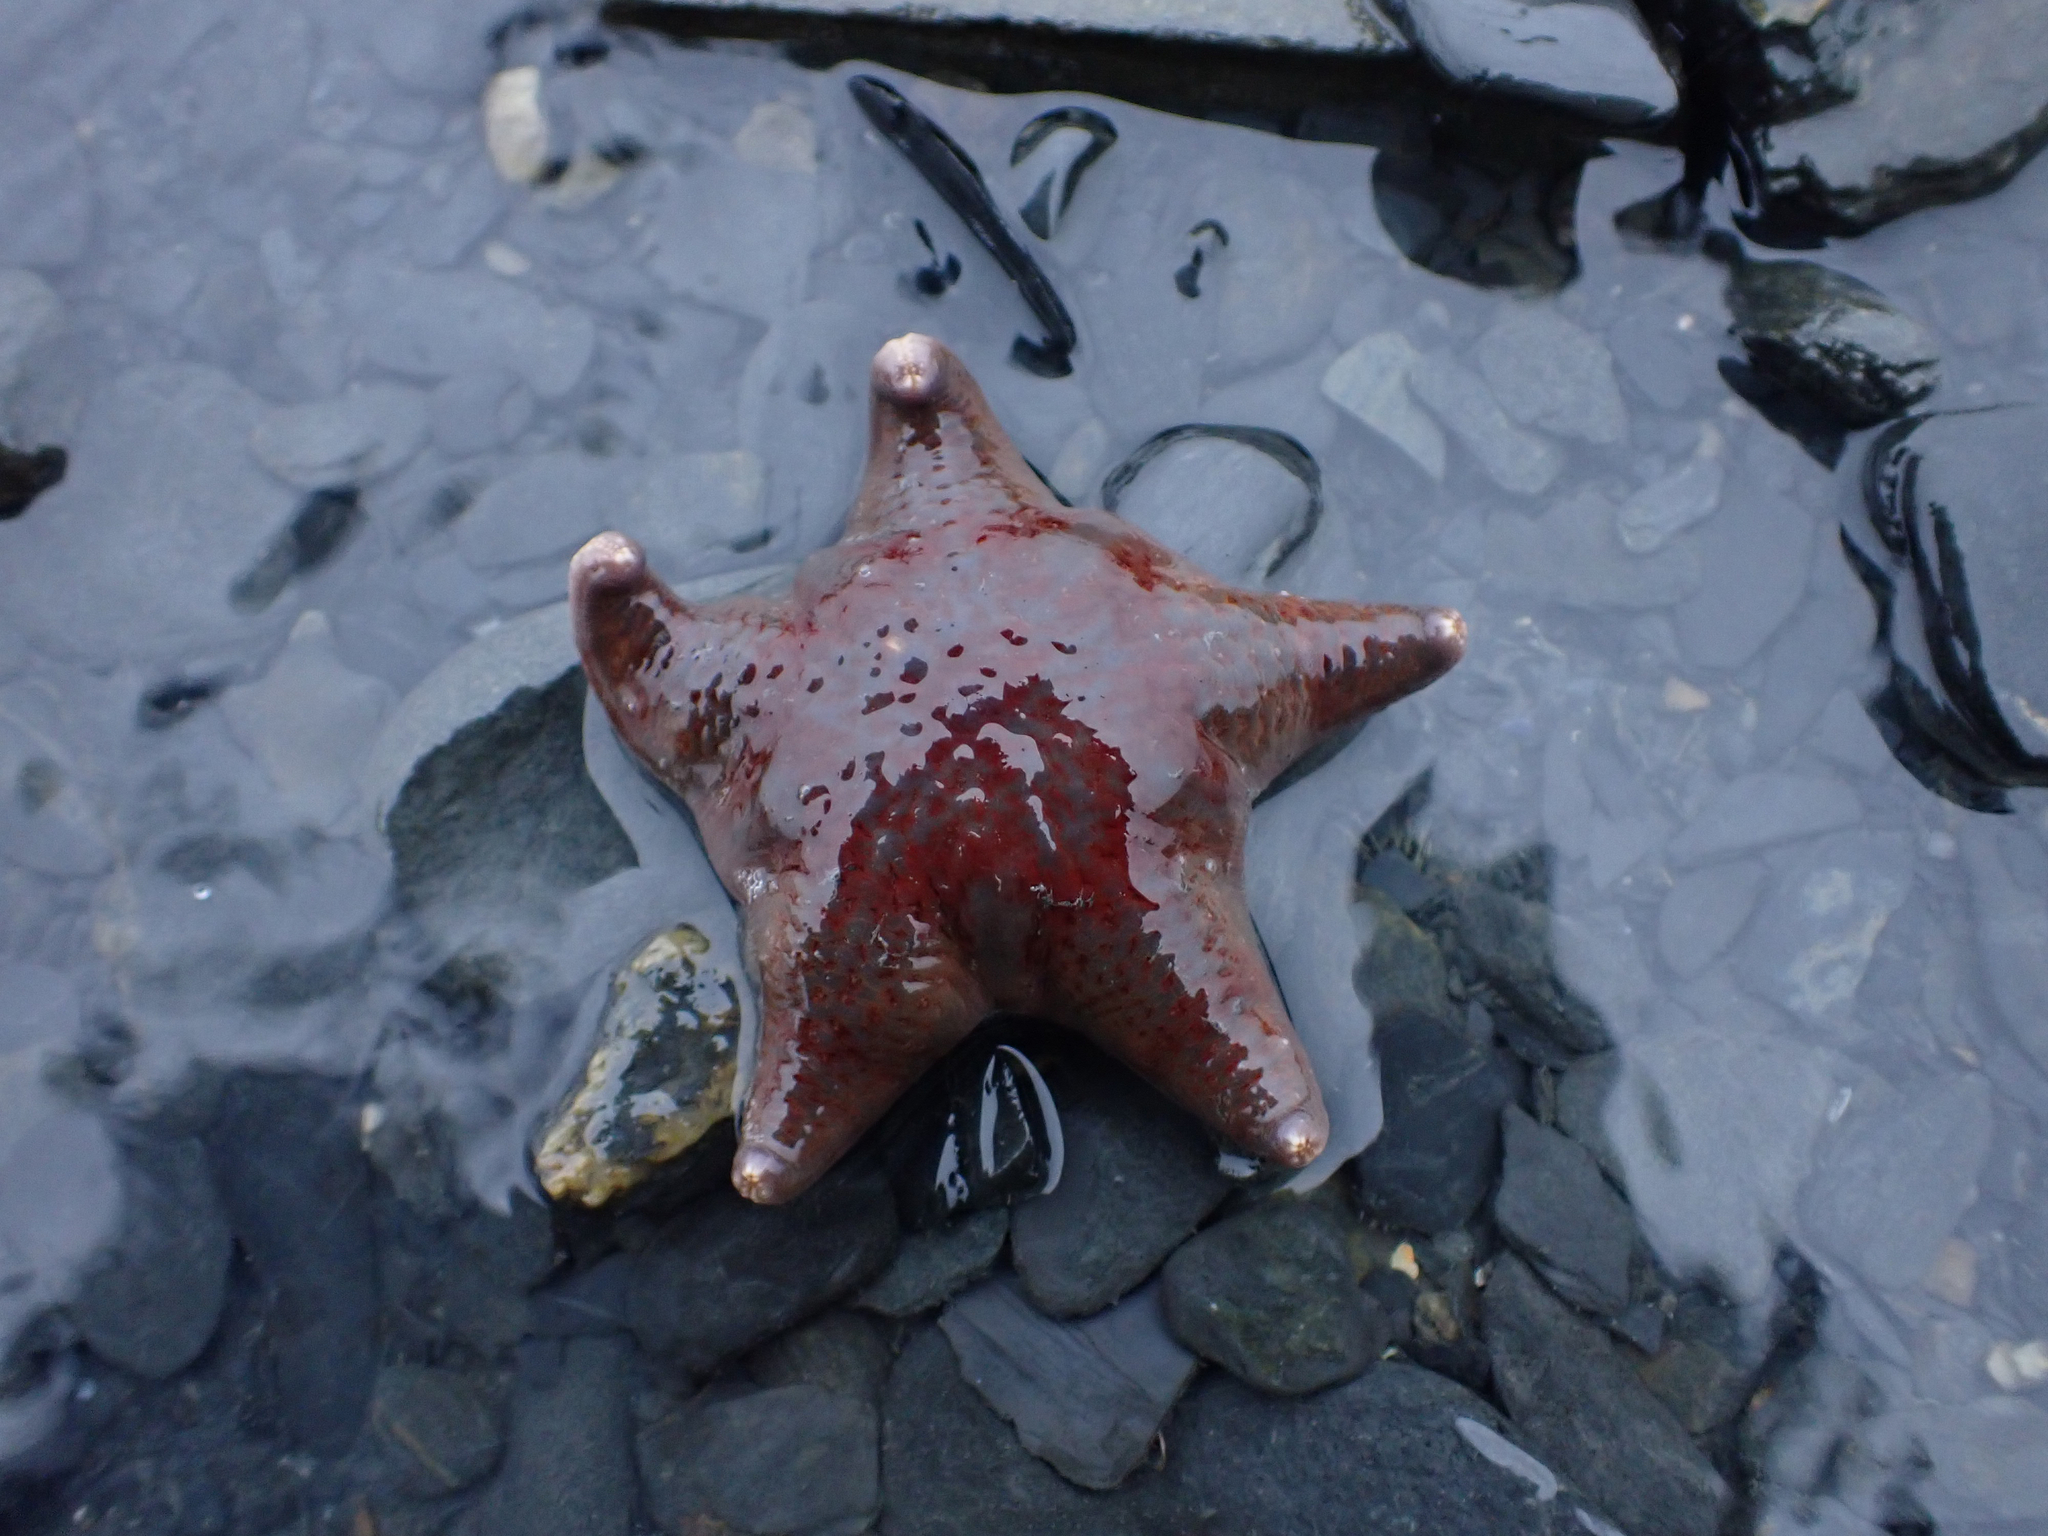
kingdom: Animalia
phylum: Echinodermata
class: Asteroidea
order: Valvatida
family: Asteropseidae
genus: Dermasterias
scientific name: Dermasterias imbricata
